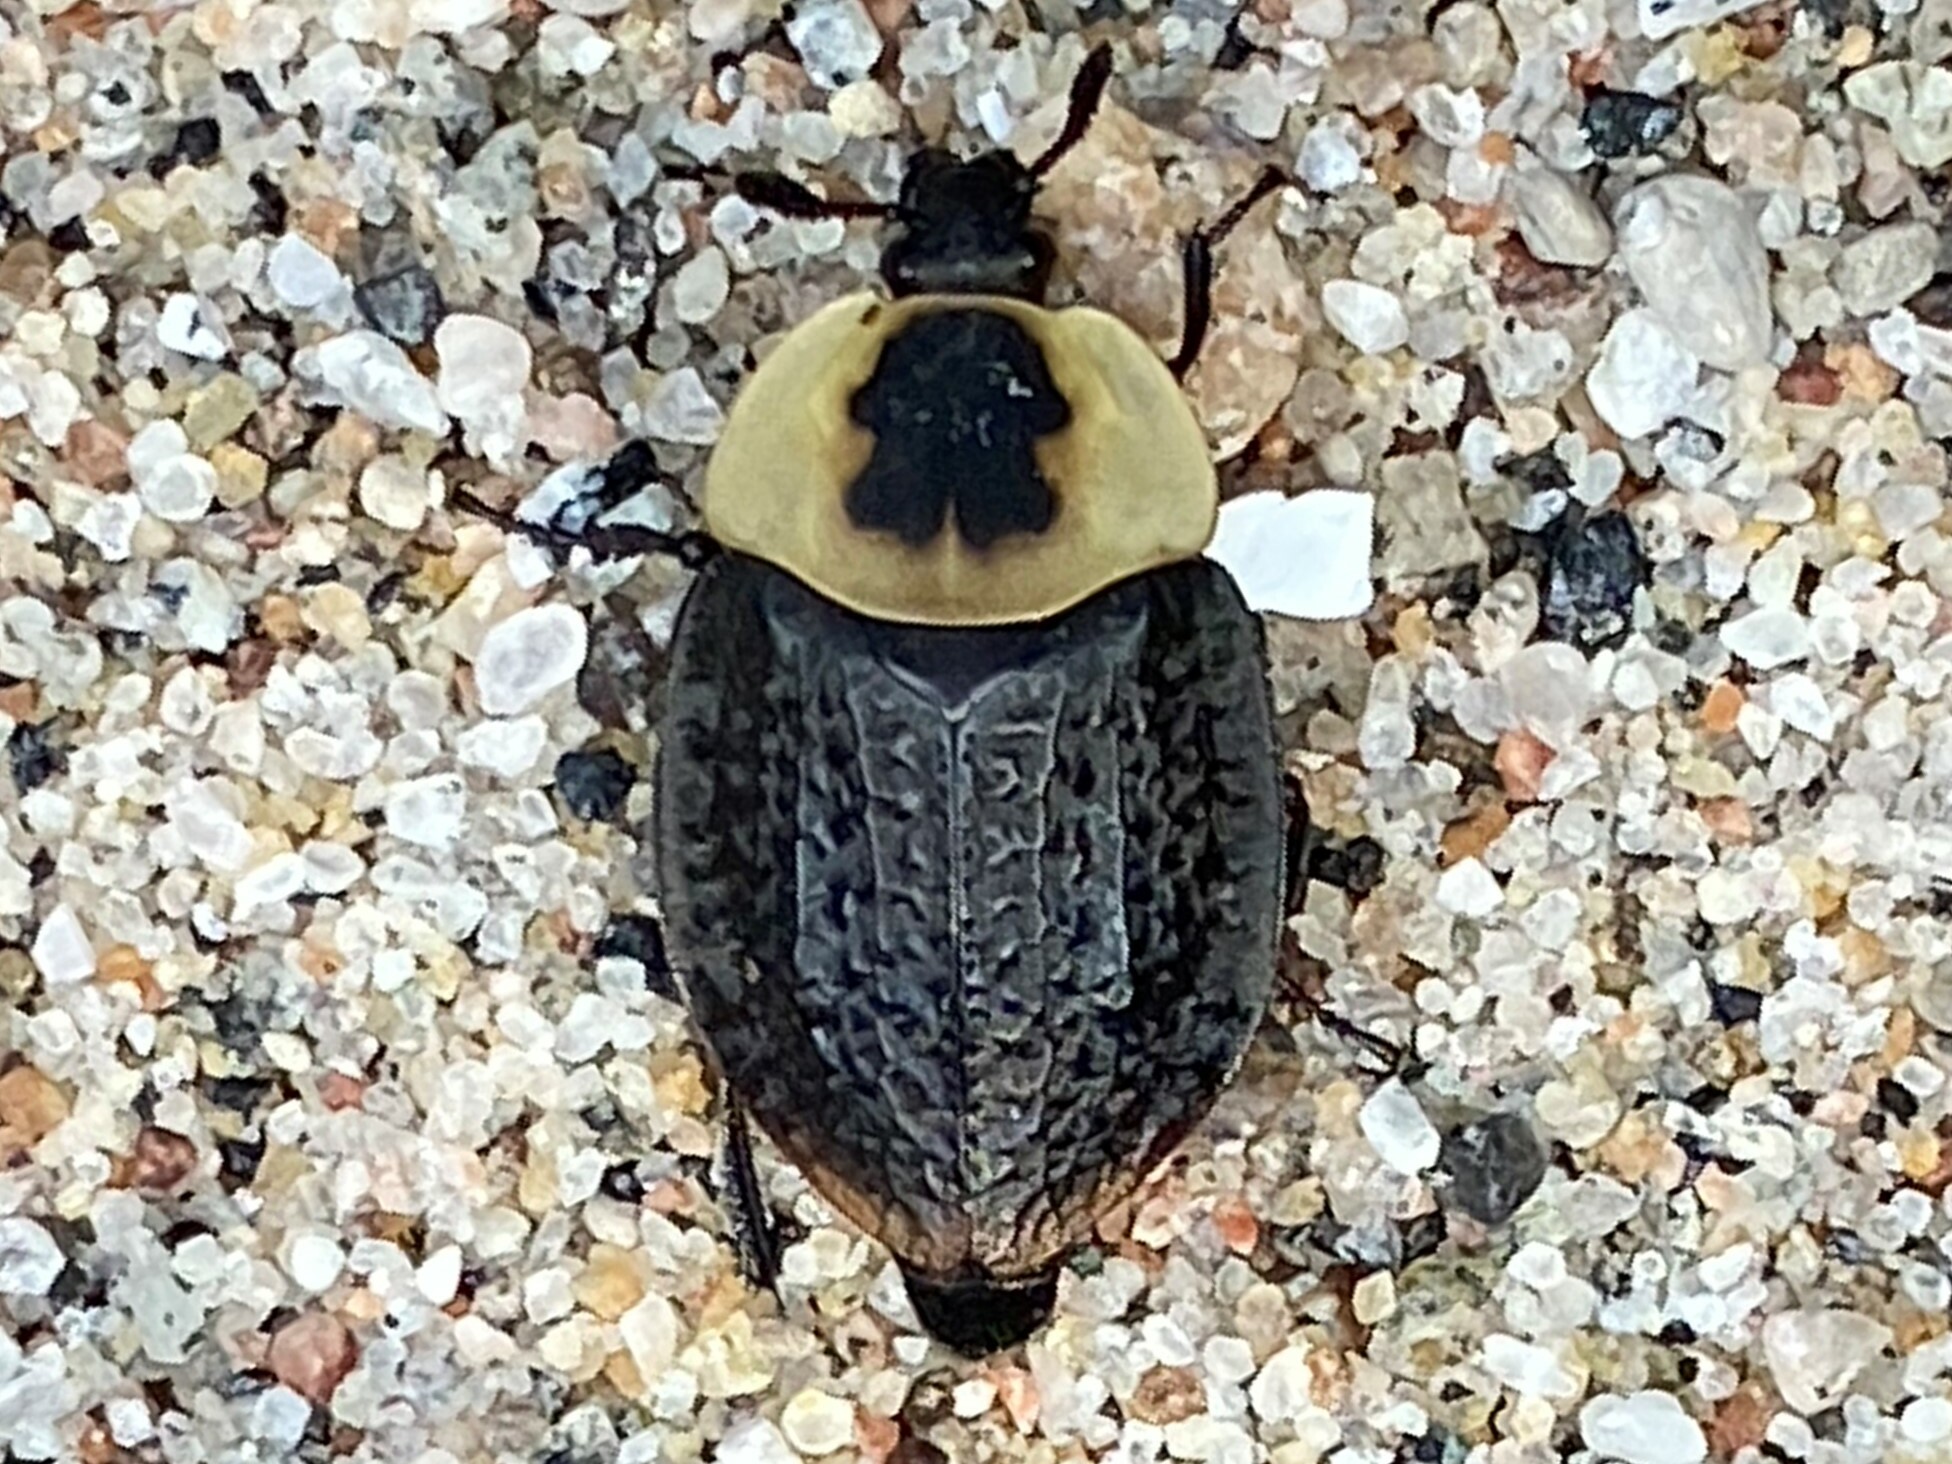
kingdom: Animalia
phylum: Arthropoda
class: Insecta
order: Coleoptera
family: Staphylinidae
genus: Necrophila
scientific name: Necrophila americana
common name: American carrion beetle
